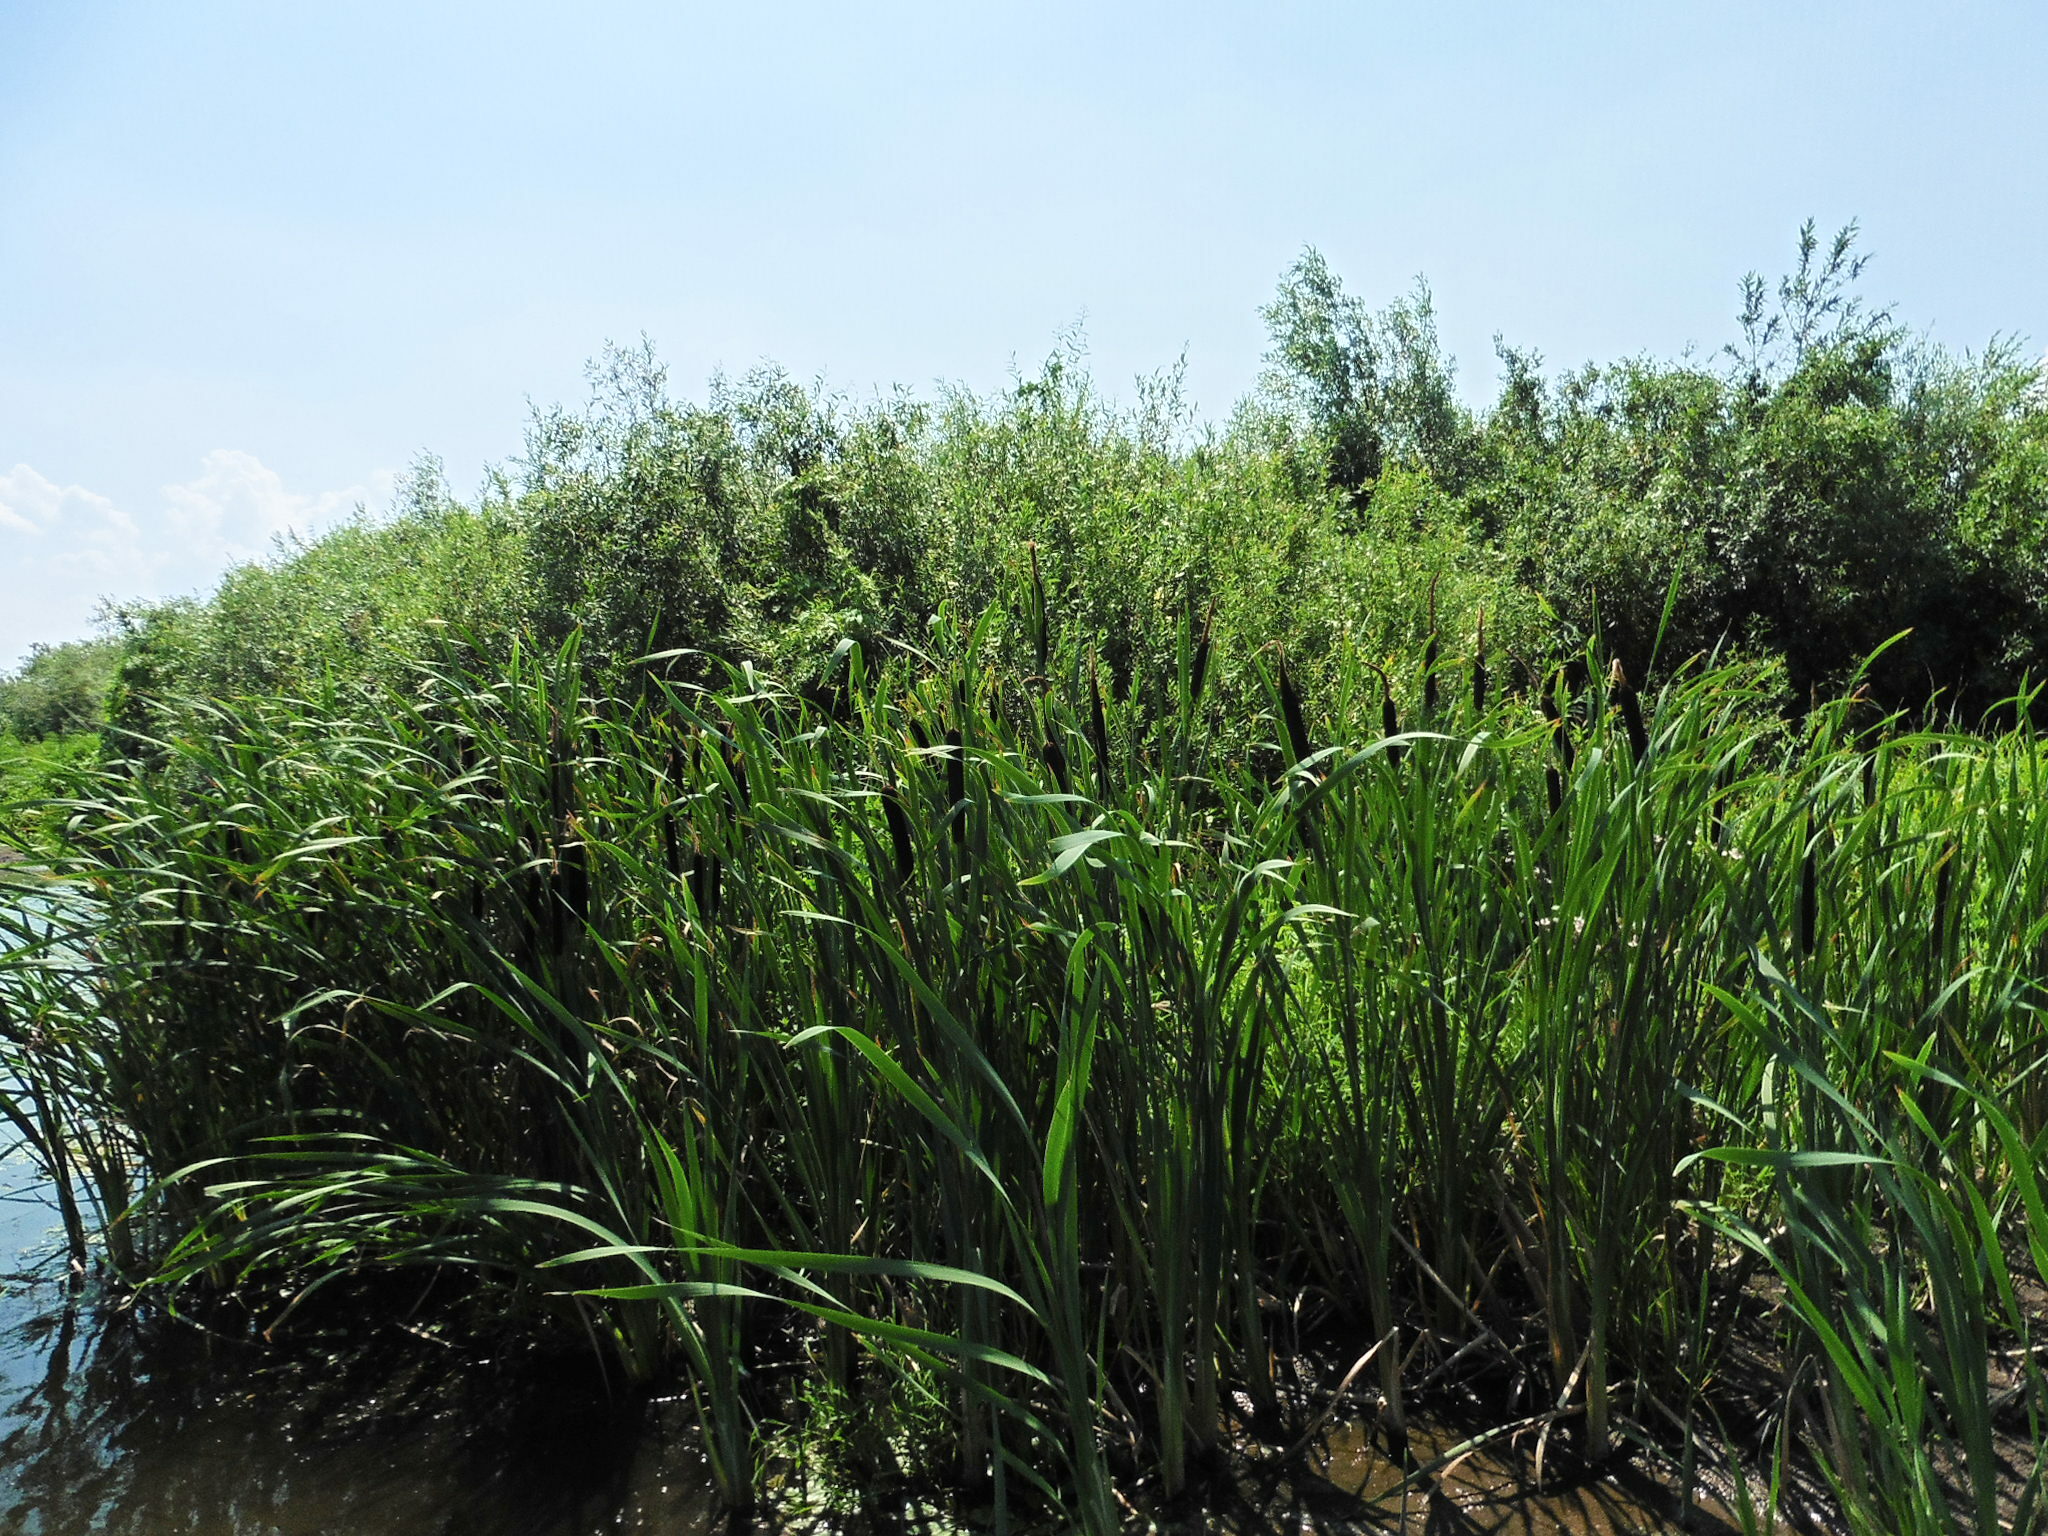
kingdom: Plantae
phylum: Tracheophyta
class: Liliopsida
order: Poales
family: Typhaceae
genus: Typha
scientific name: Typha latifolia
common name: Broadleaf cattail
